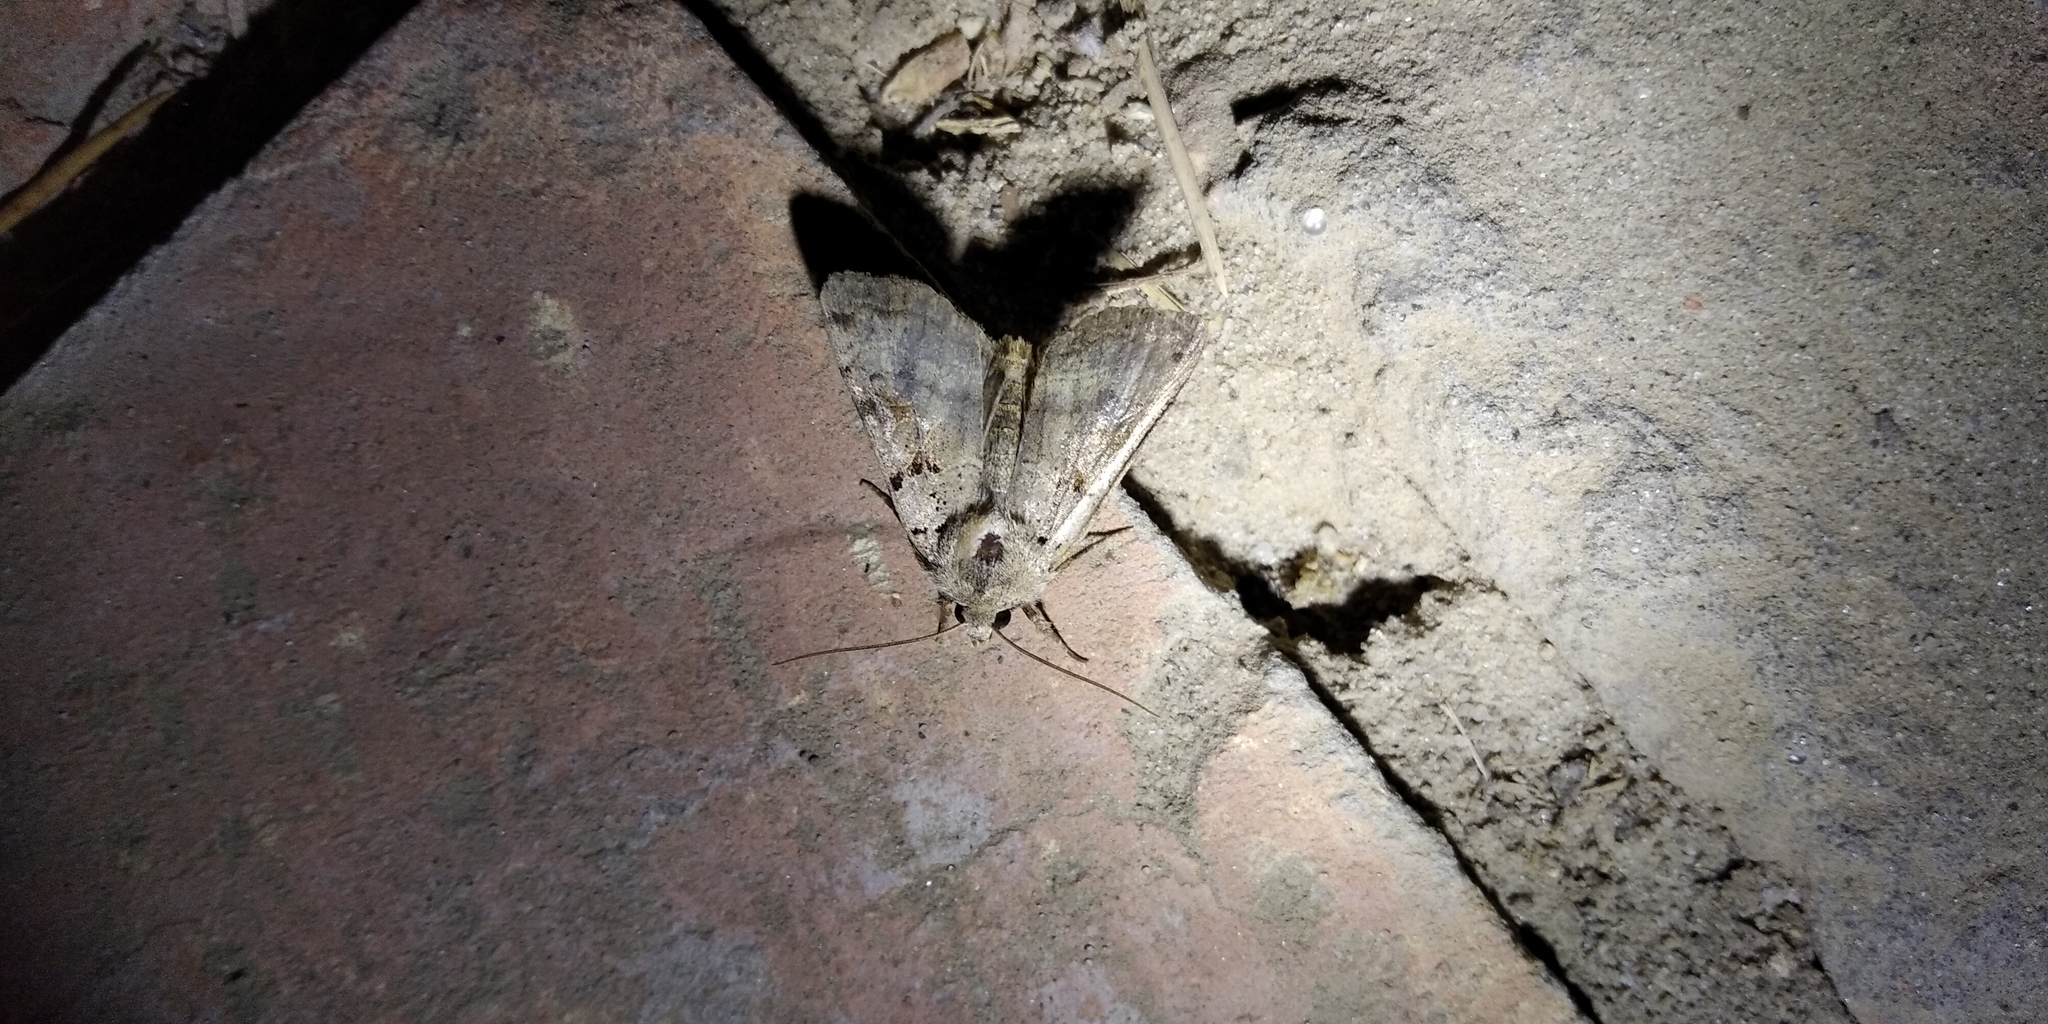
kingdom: Animalia
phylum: Arthropoda
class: Insecta
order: Lepidoptera
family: Noctuidae
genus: Eugnorisma
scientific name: Eugnorisma depuncta
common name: Plain clay
